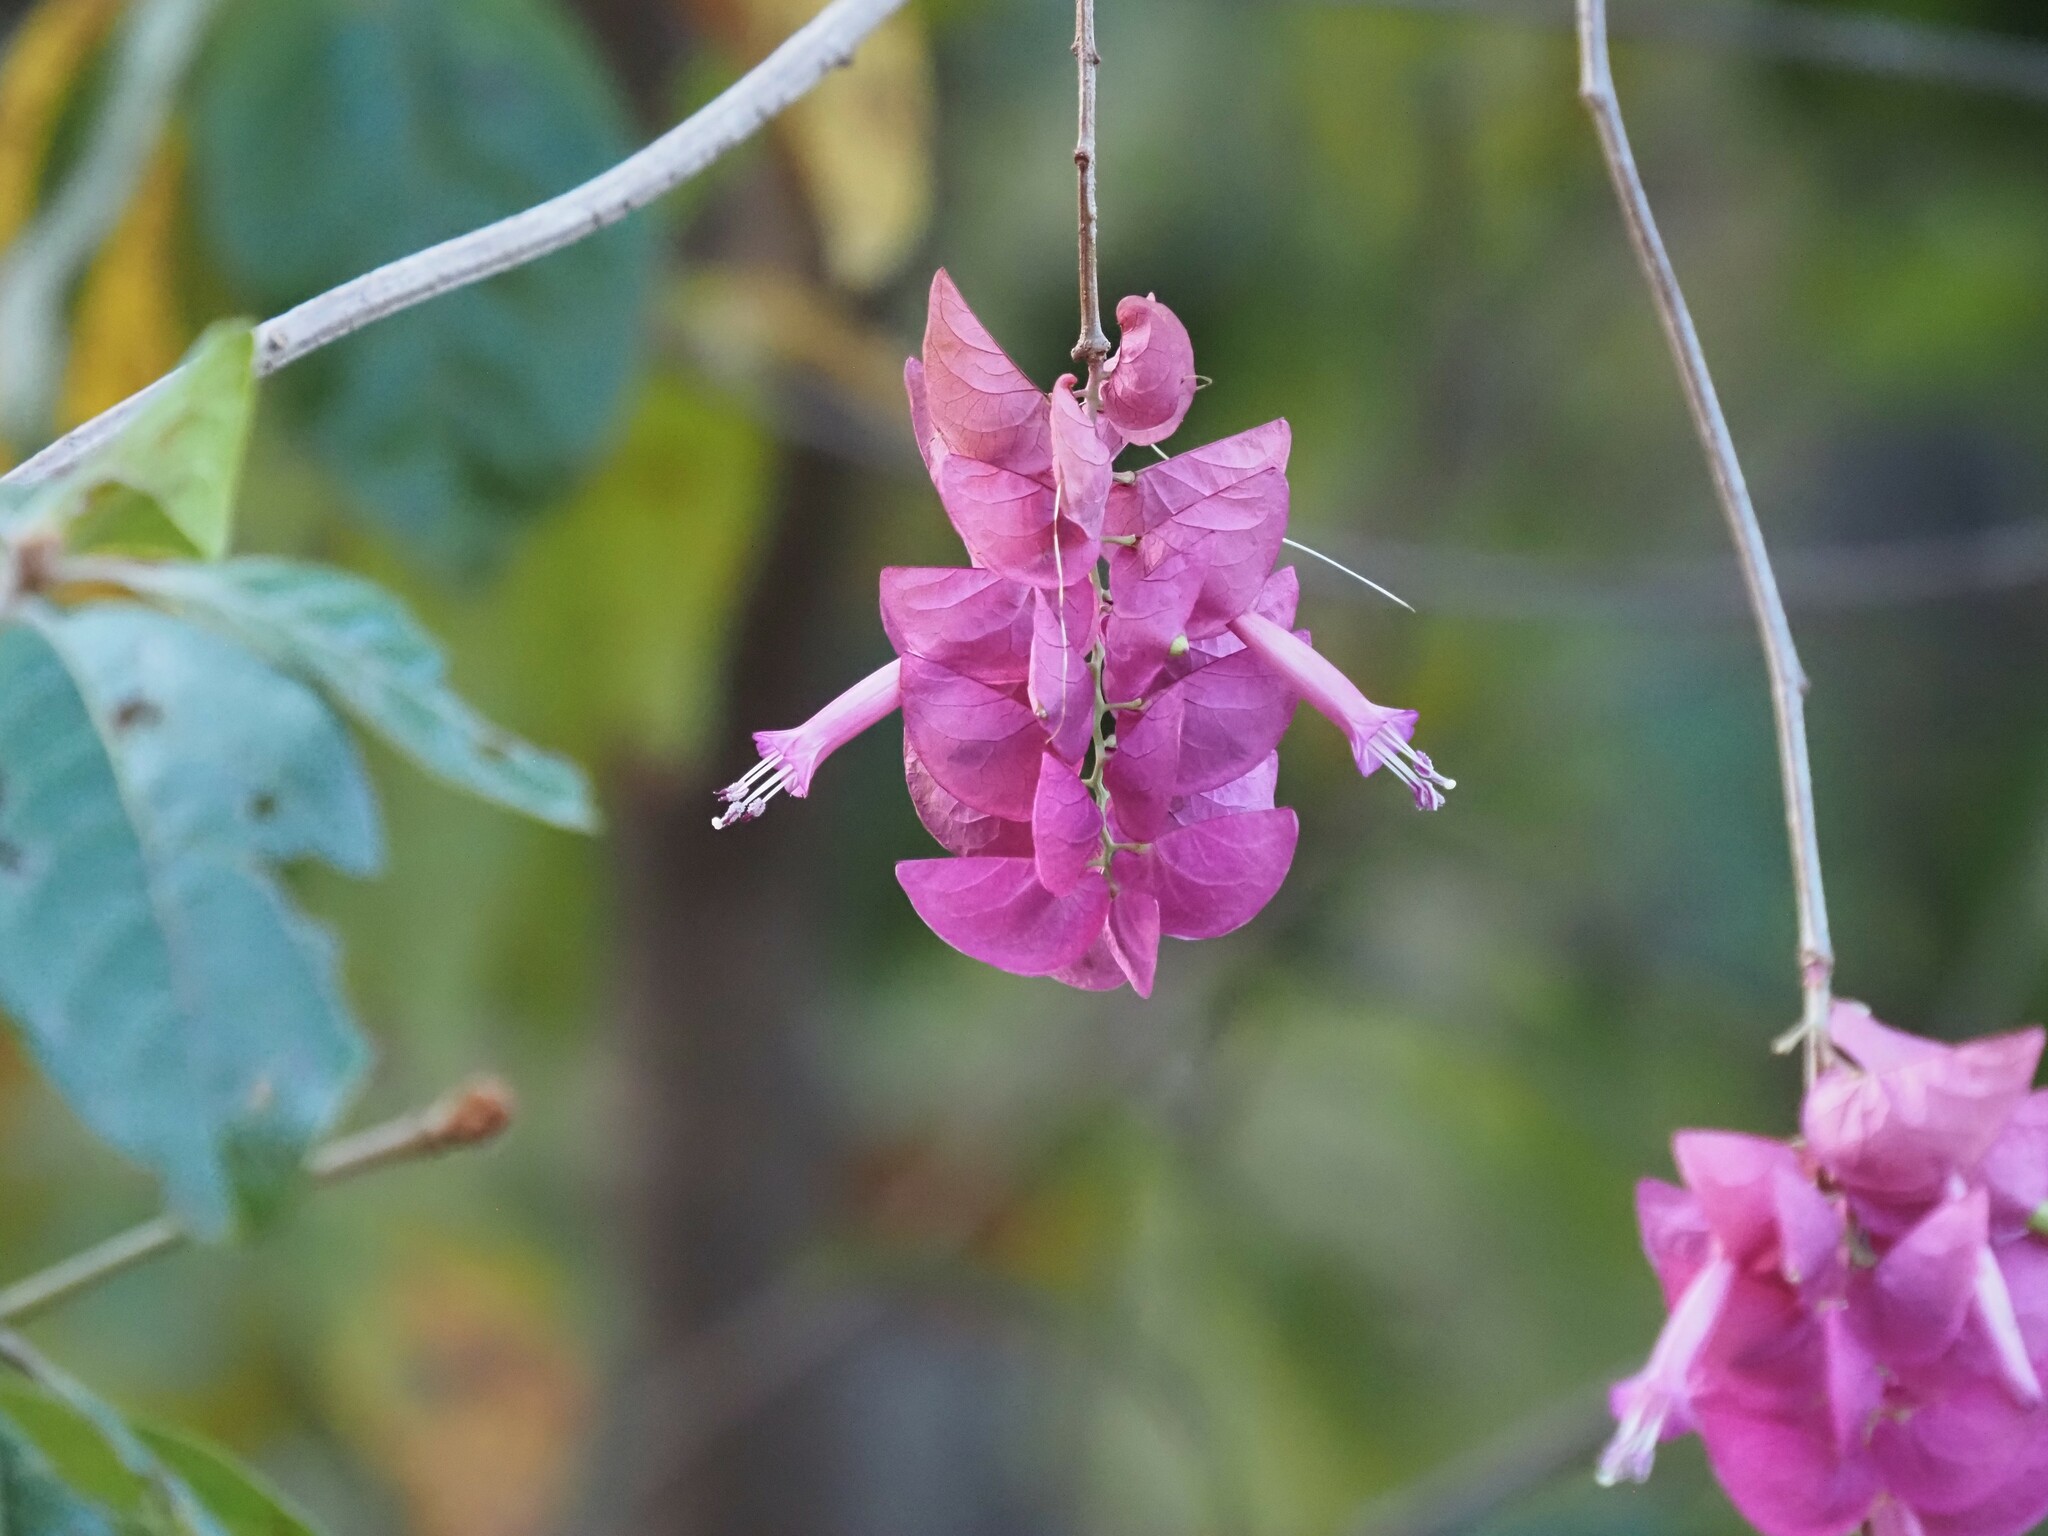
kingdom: Plantae
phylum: Tracheophyta
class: Magnoliopsida
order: Solanales
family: Convolvulaceae
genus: Ipomoea
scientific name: Ipomoea bracteata
